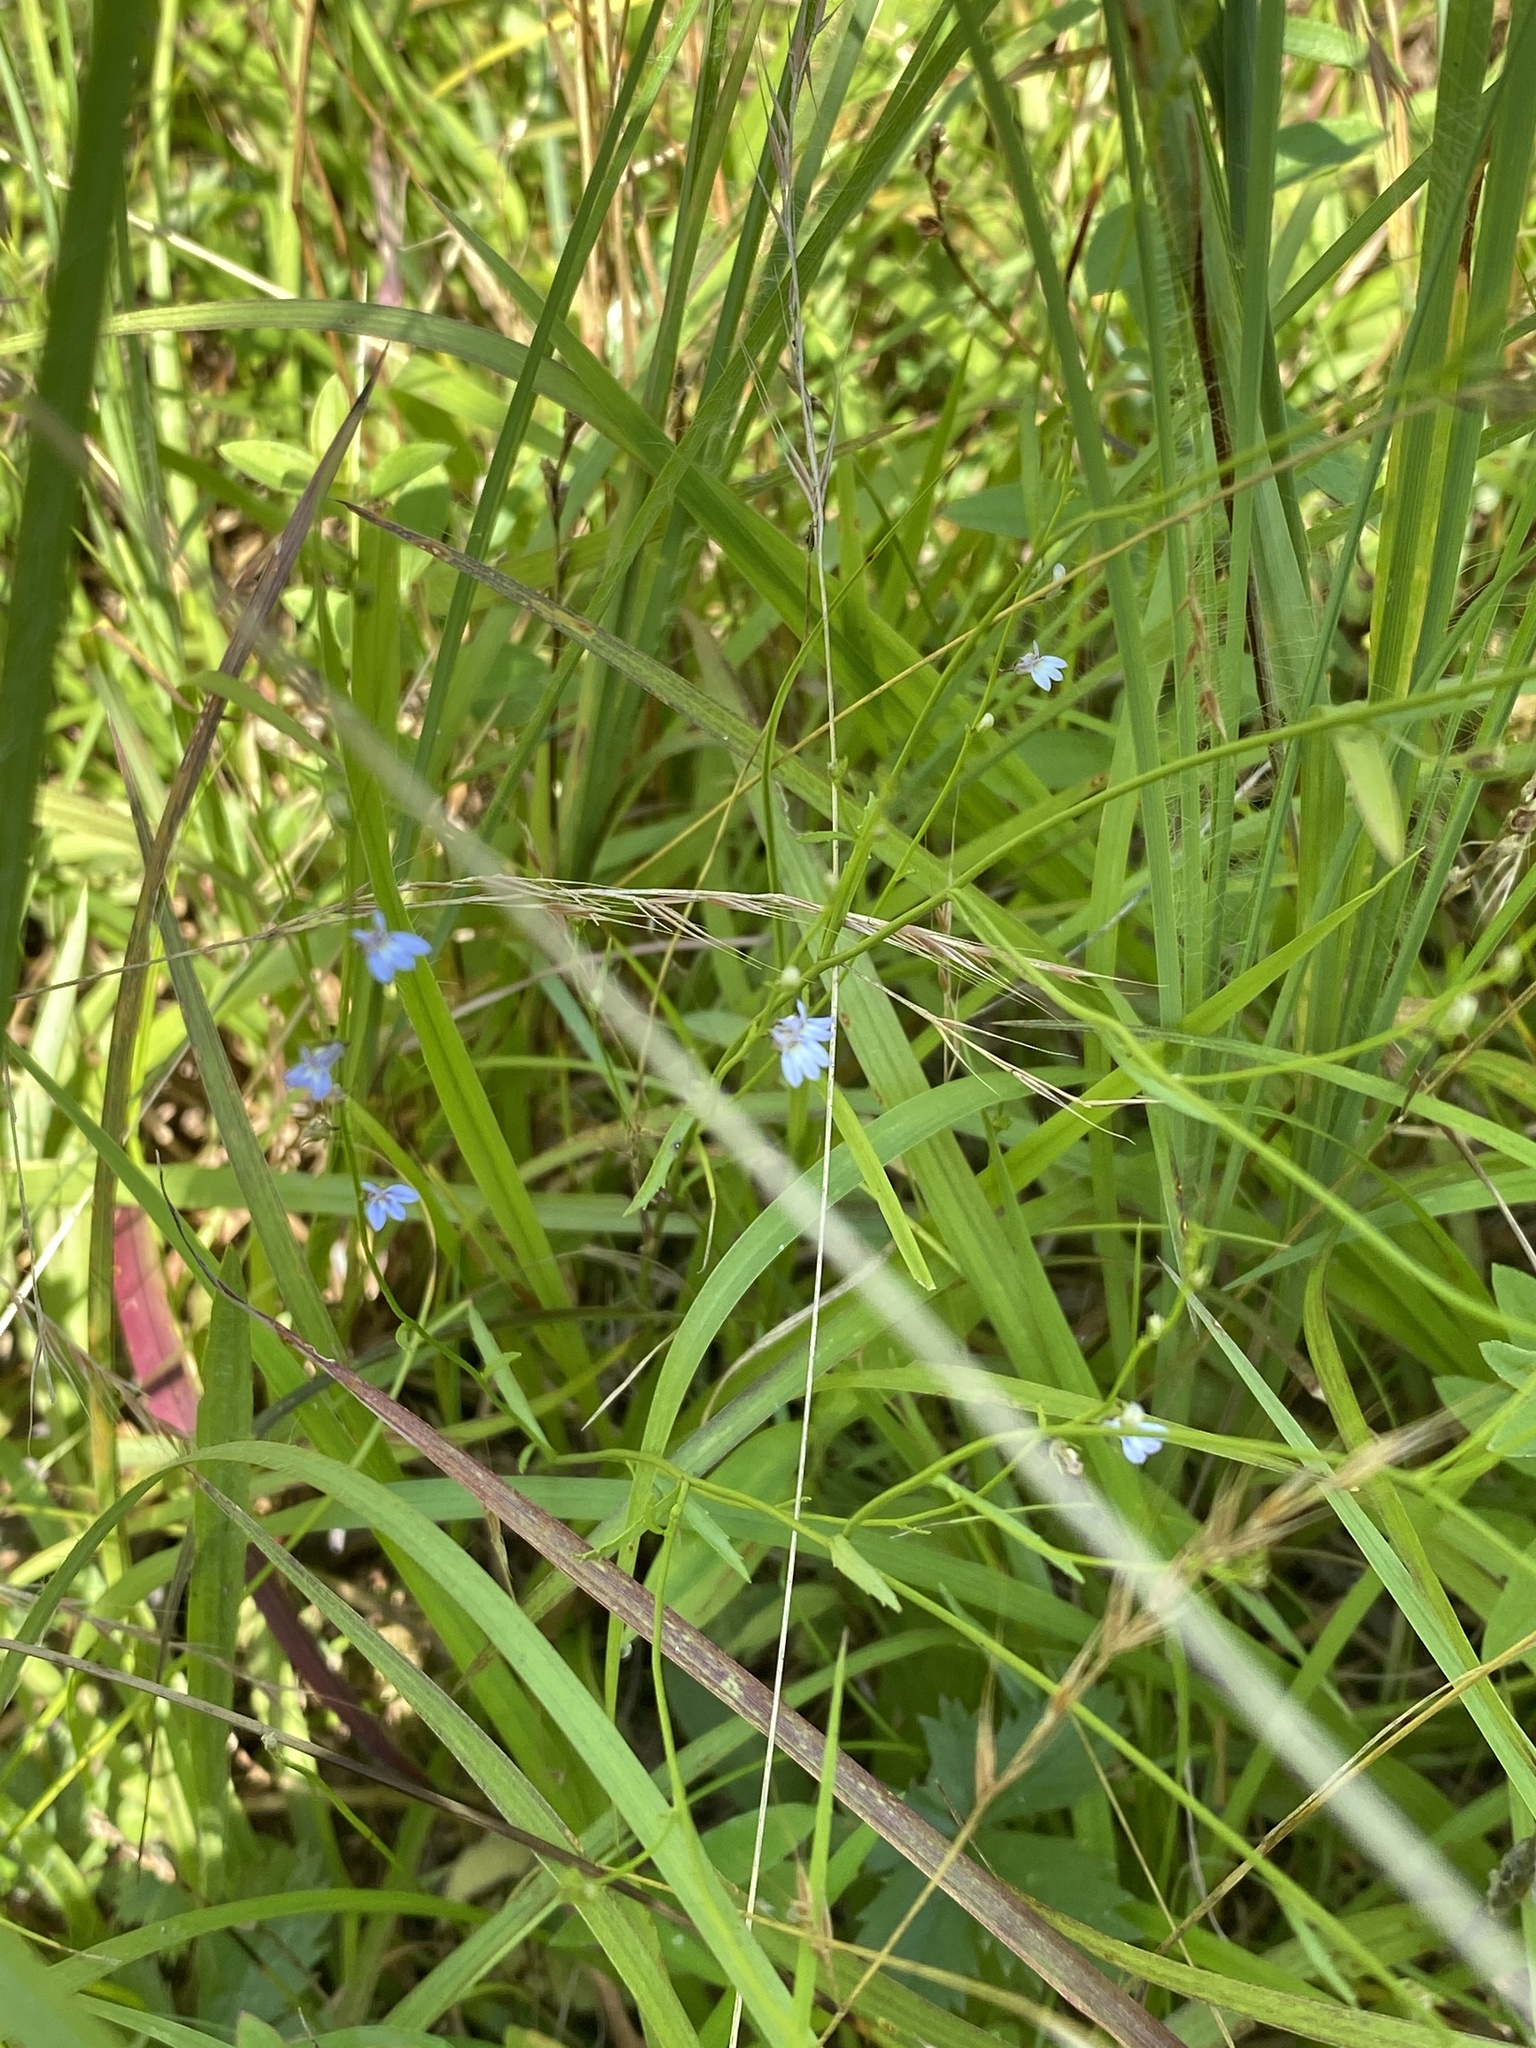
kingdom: Plantae
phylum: Tracheophyta
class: Magnoliopsida
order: Asterales
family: Campanulaceae
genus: Lobelia
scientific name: Lobelia nuttallii
